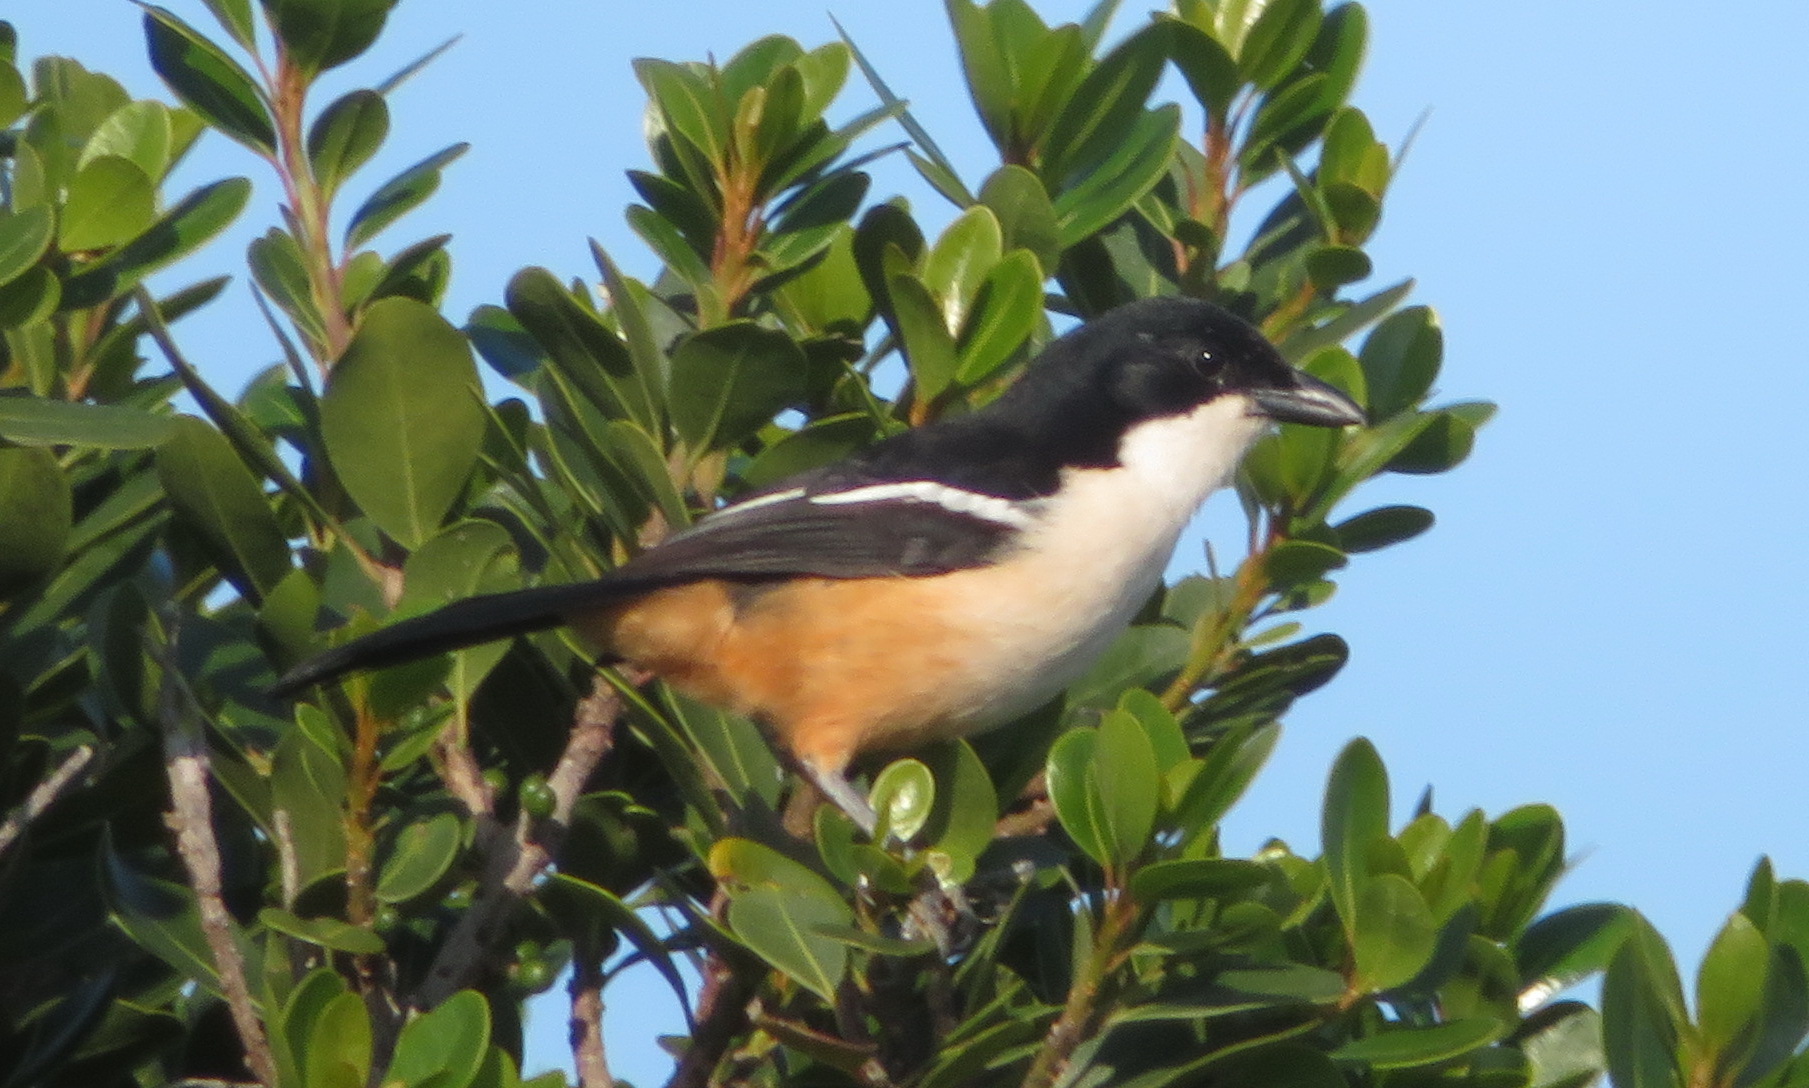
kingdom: Animalia
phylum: Chordata
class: Aves
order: Passeriformes
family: Malaconotidae
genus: Laniarius
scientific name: Laniarius ferrugineus
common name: Southern boubou
